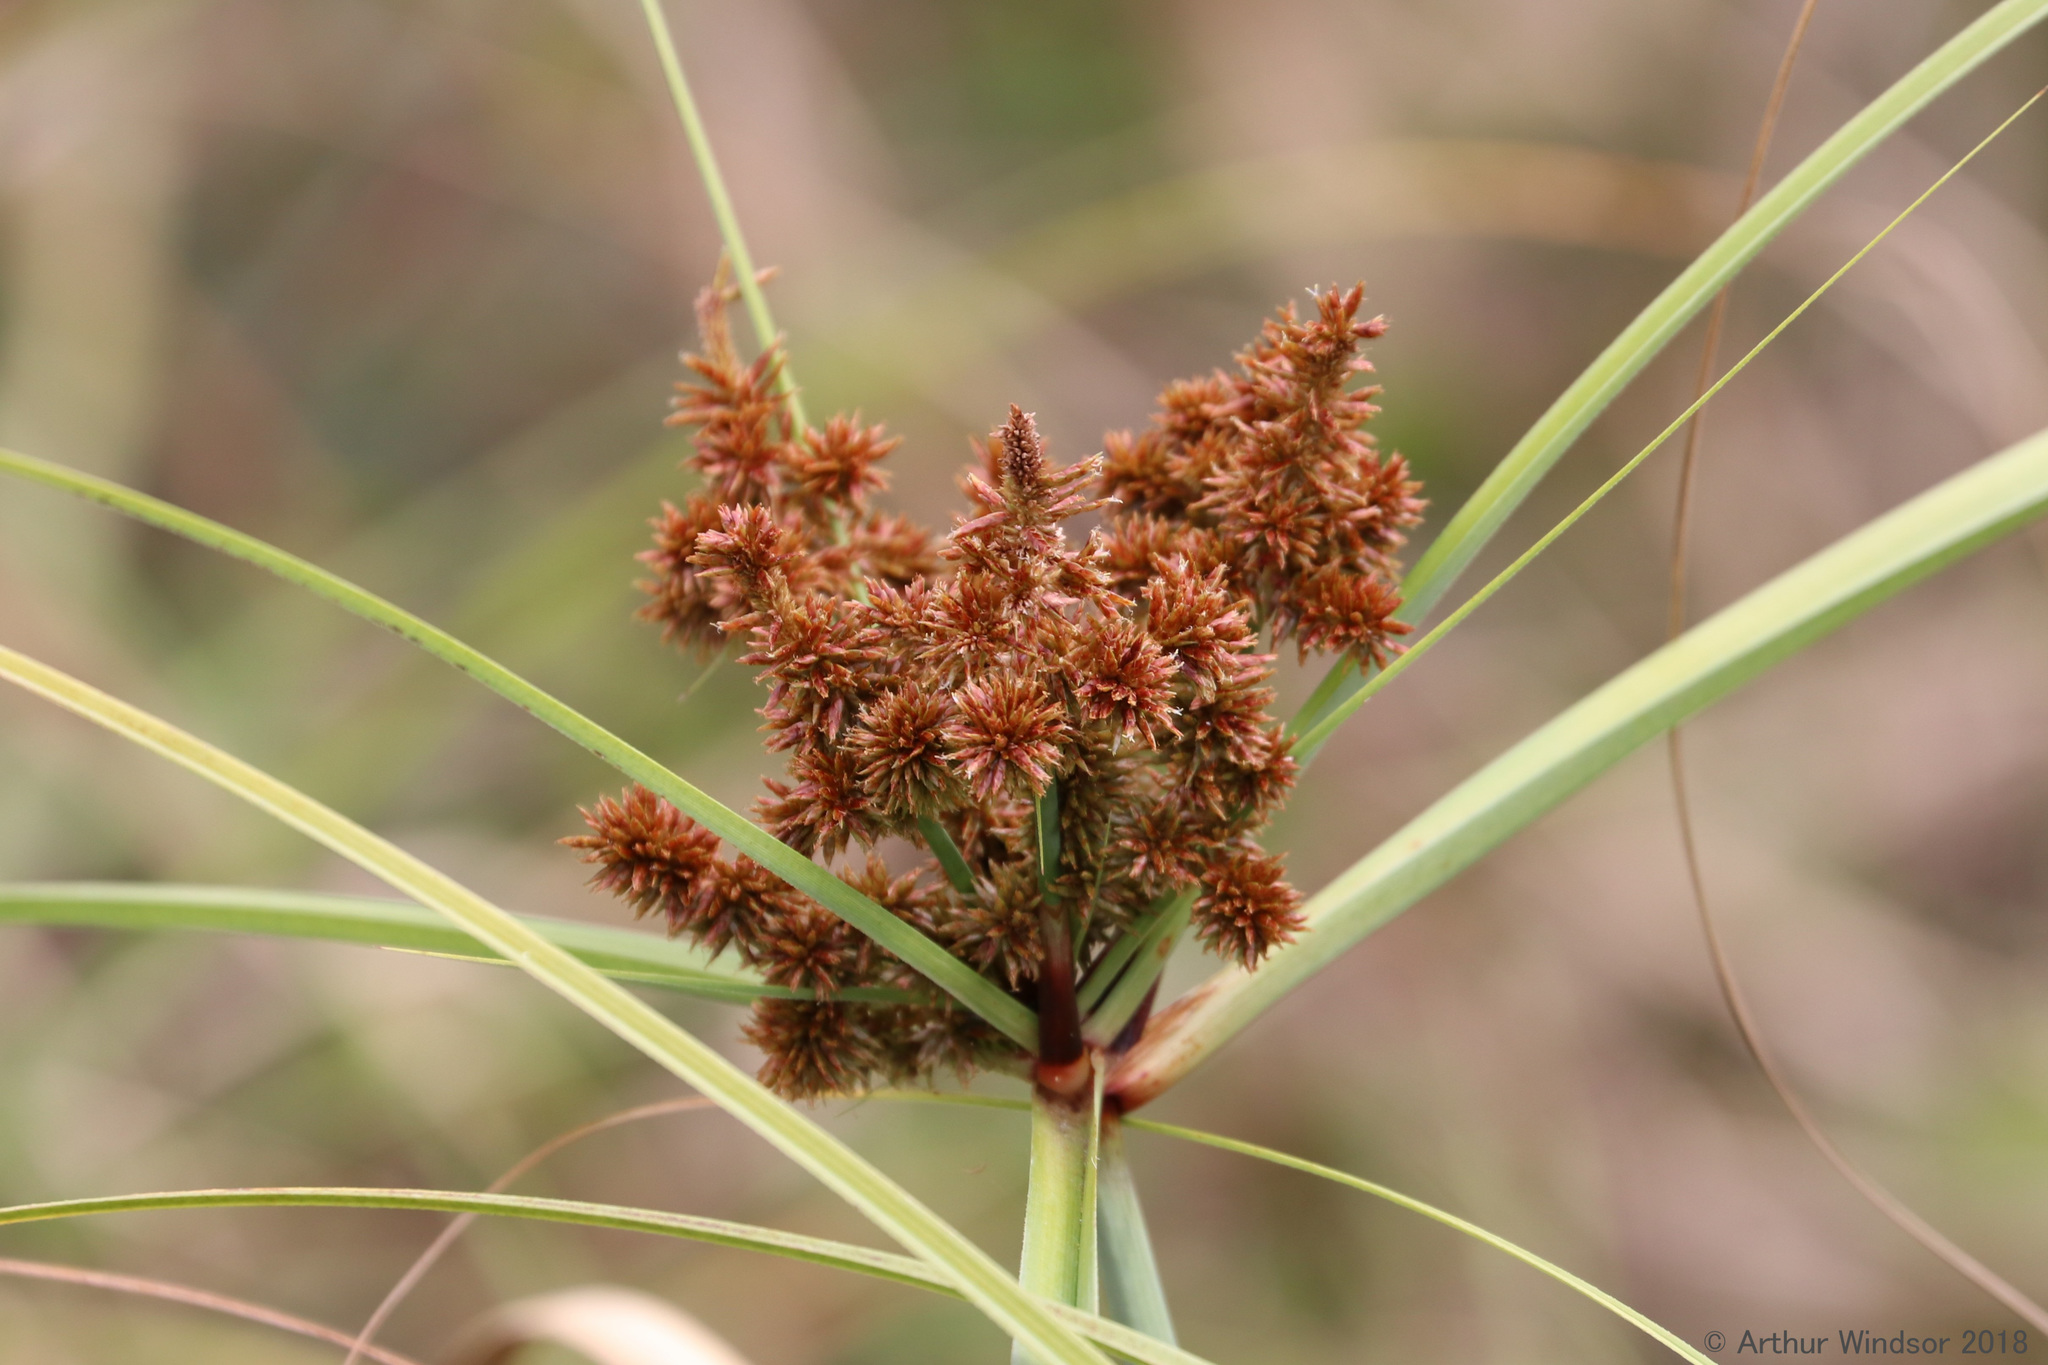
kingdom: Plantae
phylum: Tracheophyta
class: Liliopsida
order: Poales
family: Cyperaceae
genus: Cyperus
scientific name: Cyperus ligularis
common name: Swamp flat sedge
